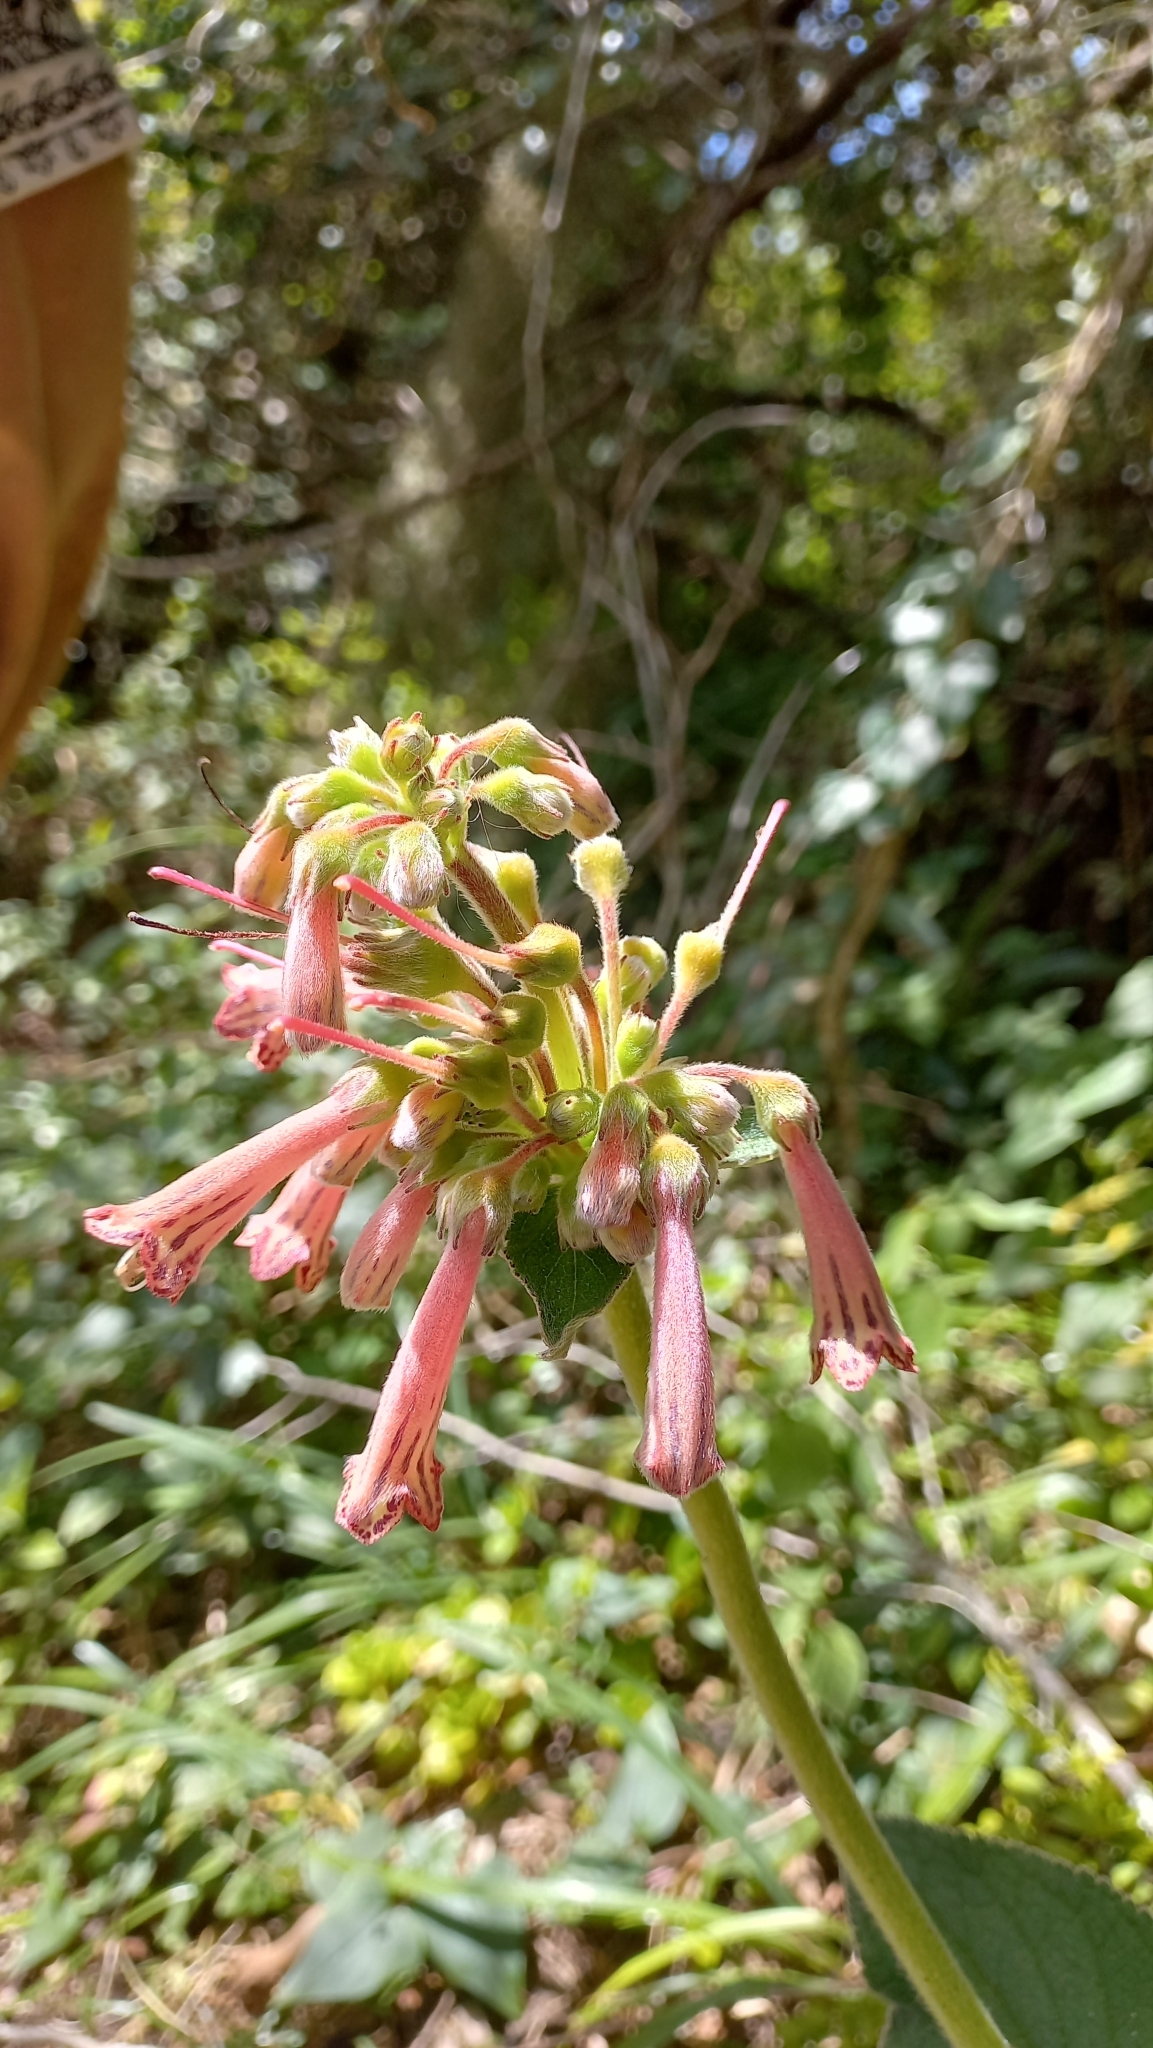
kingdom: Plantae
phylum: Tracheophyta
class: Magnoliopsida
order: Lamiales
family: Gesneriaceae
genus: Sinningia
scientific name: Sinningia polyantha
